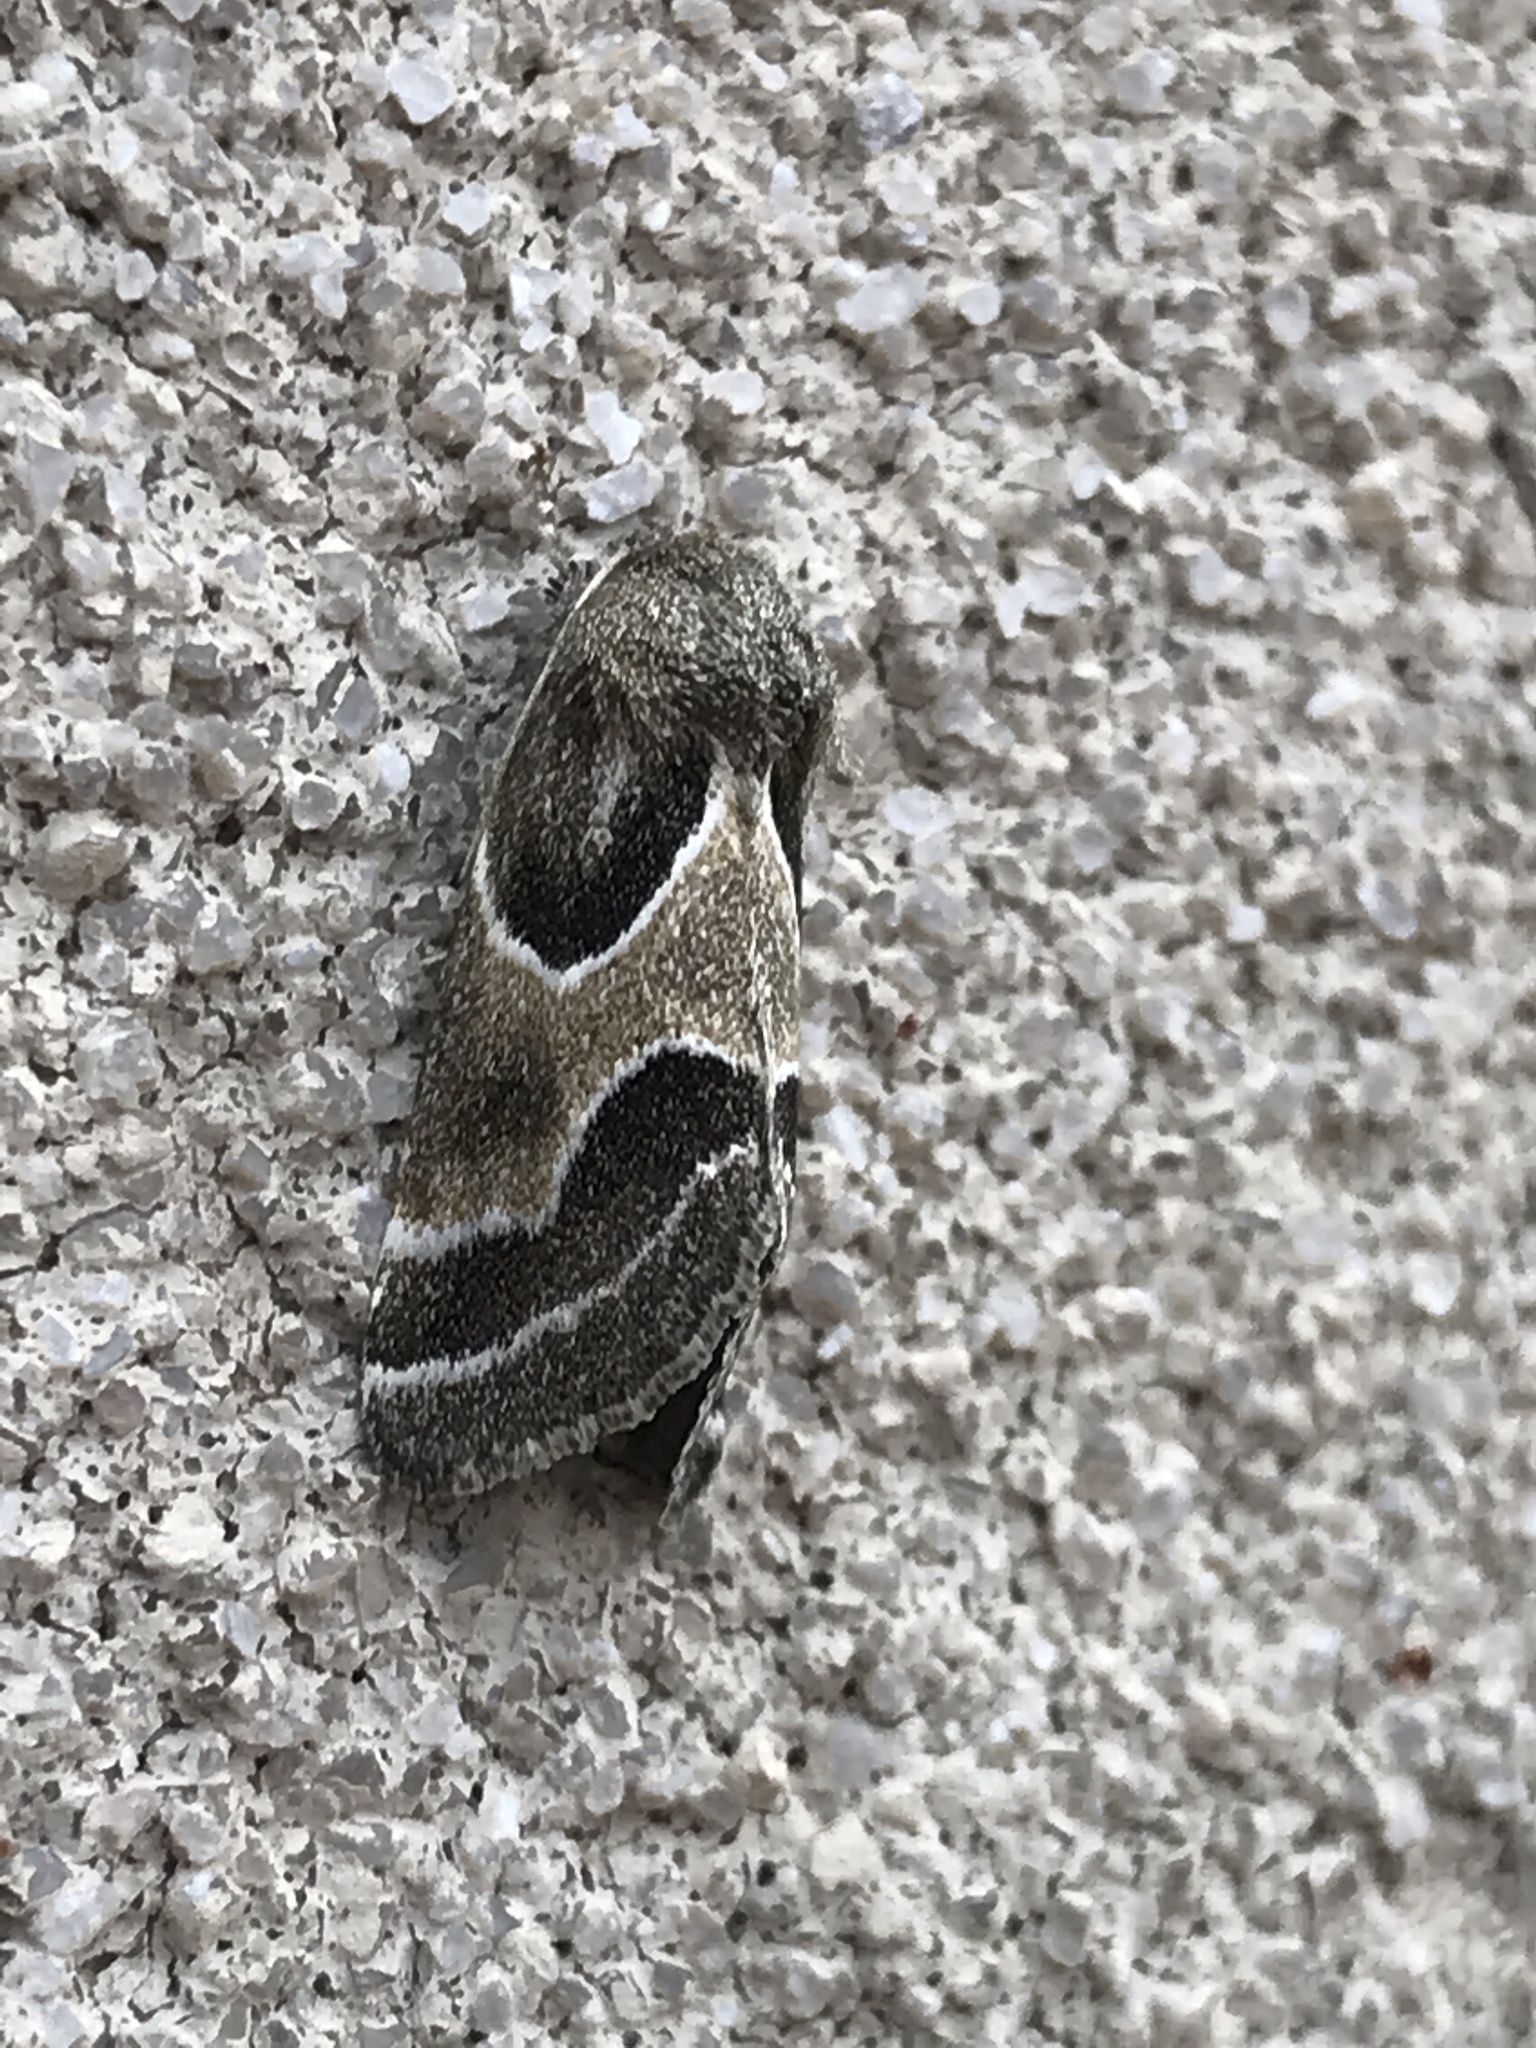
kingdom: Animalia
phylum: Arthropoda
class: Insecta
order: Lepidoptera
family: Noctuidae
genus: Schinia
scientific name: Schinia rivulosa
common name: Scarce meal-moth
